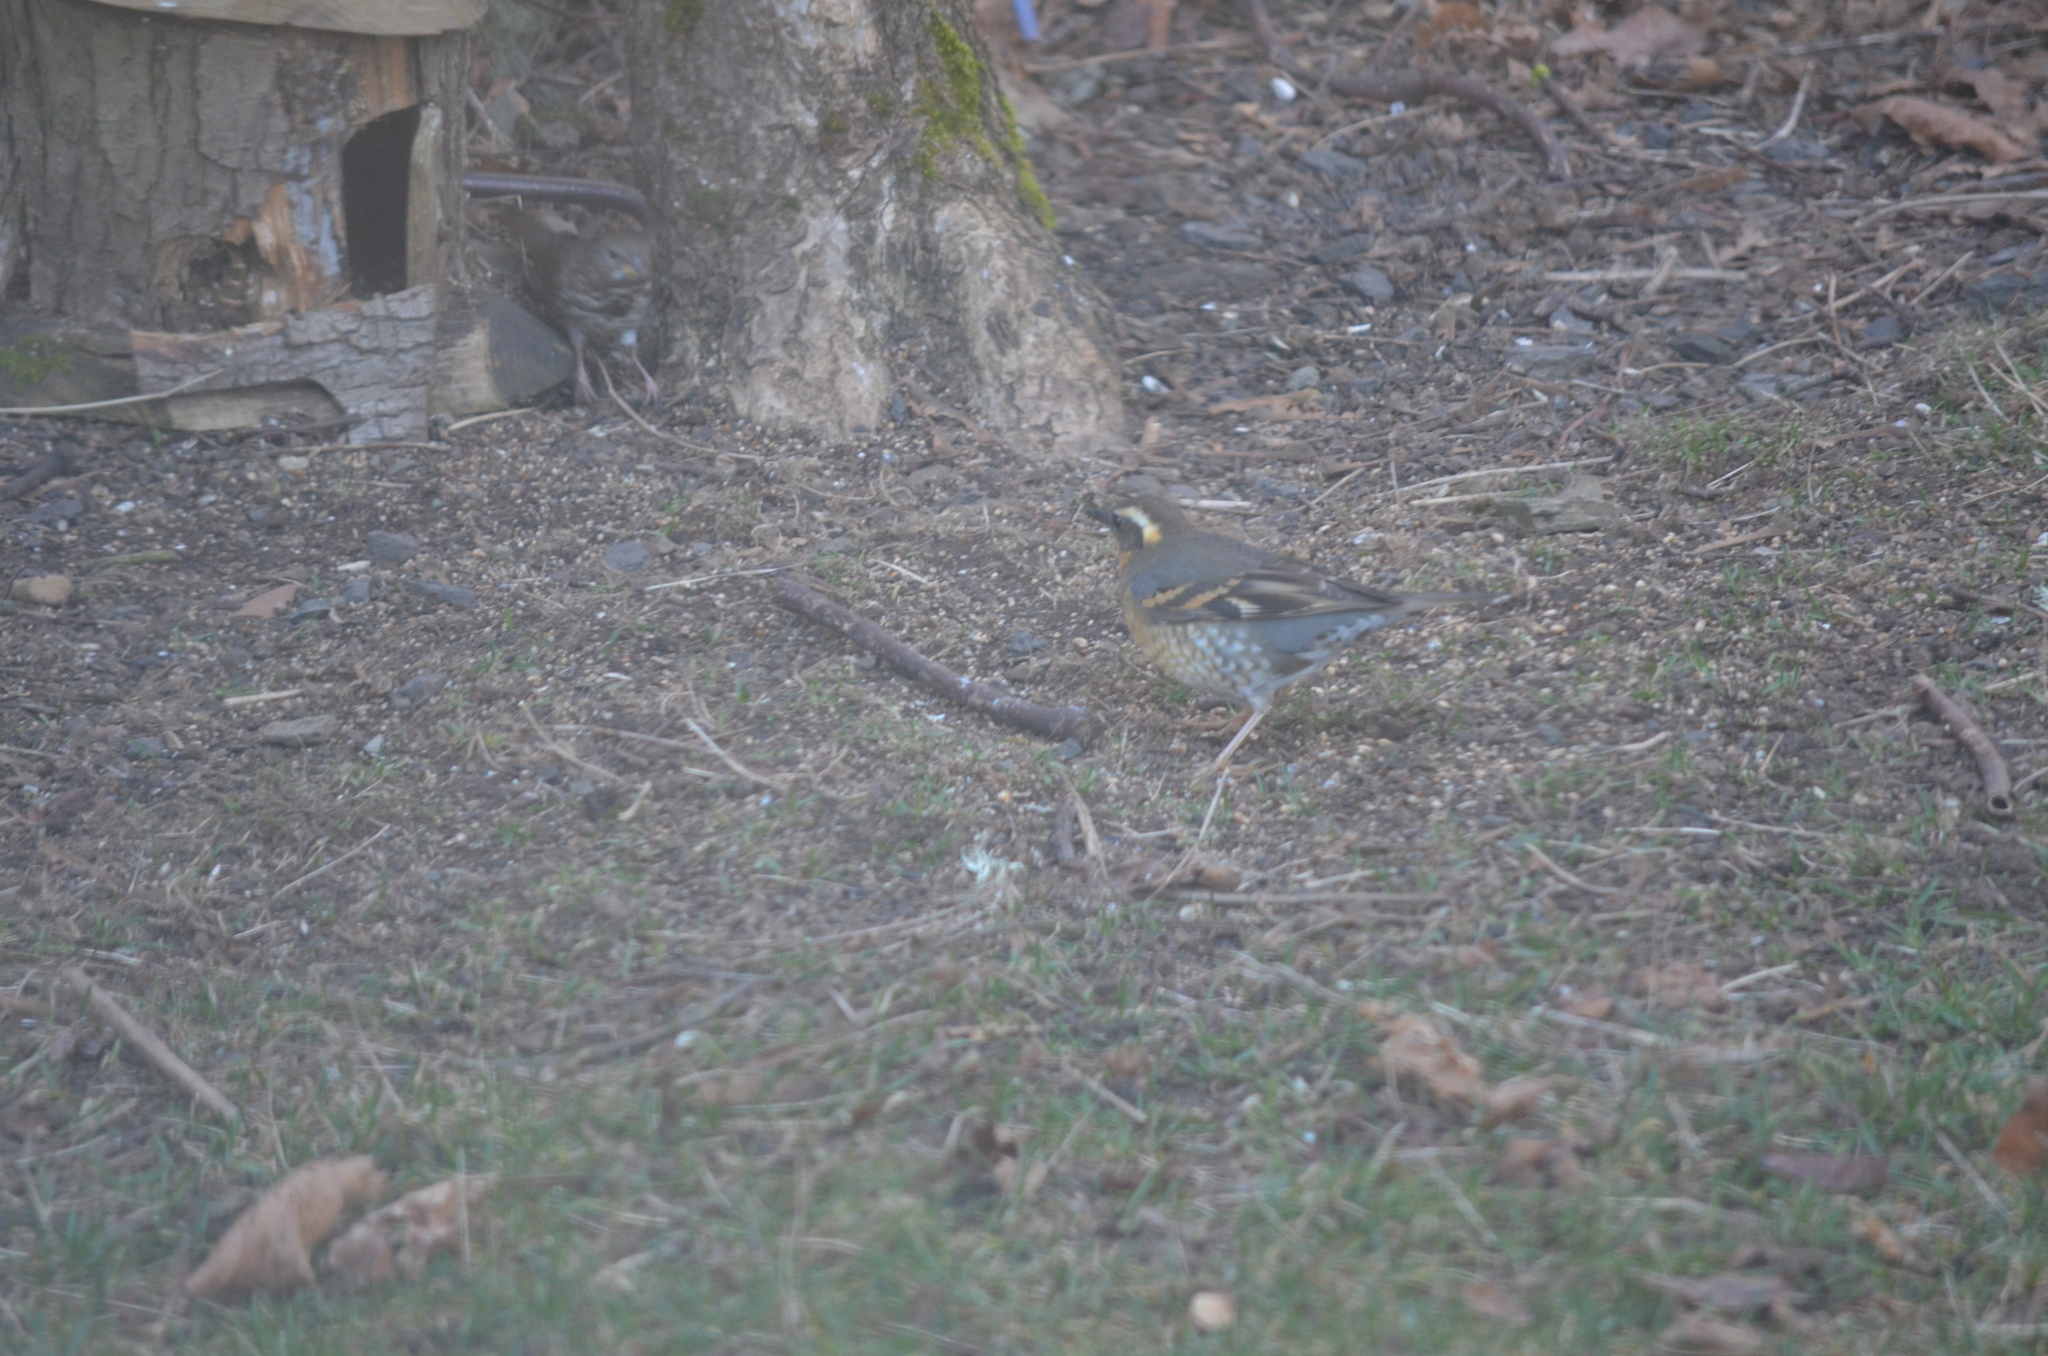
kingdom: Animalia
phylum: Chordata
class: Aves
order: Passeriformes
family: Turdidae
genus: Ixoreus
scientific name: Ixoreus naevius
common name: Varied thrush
